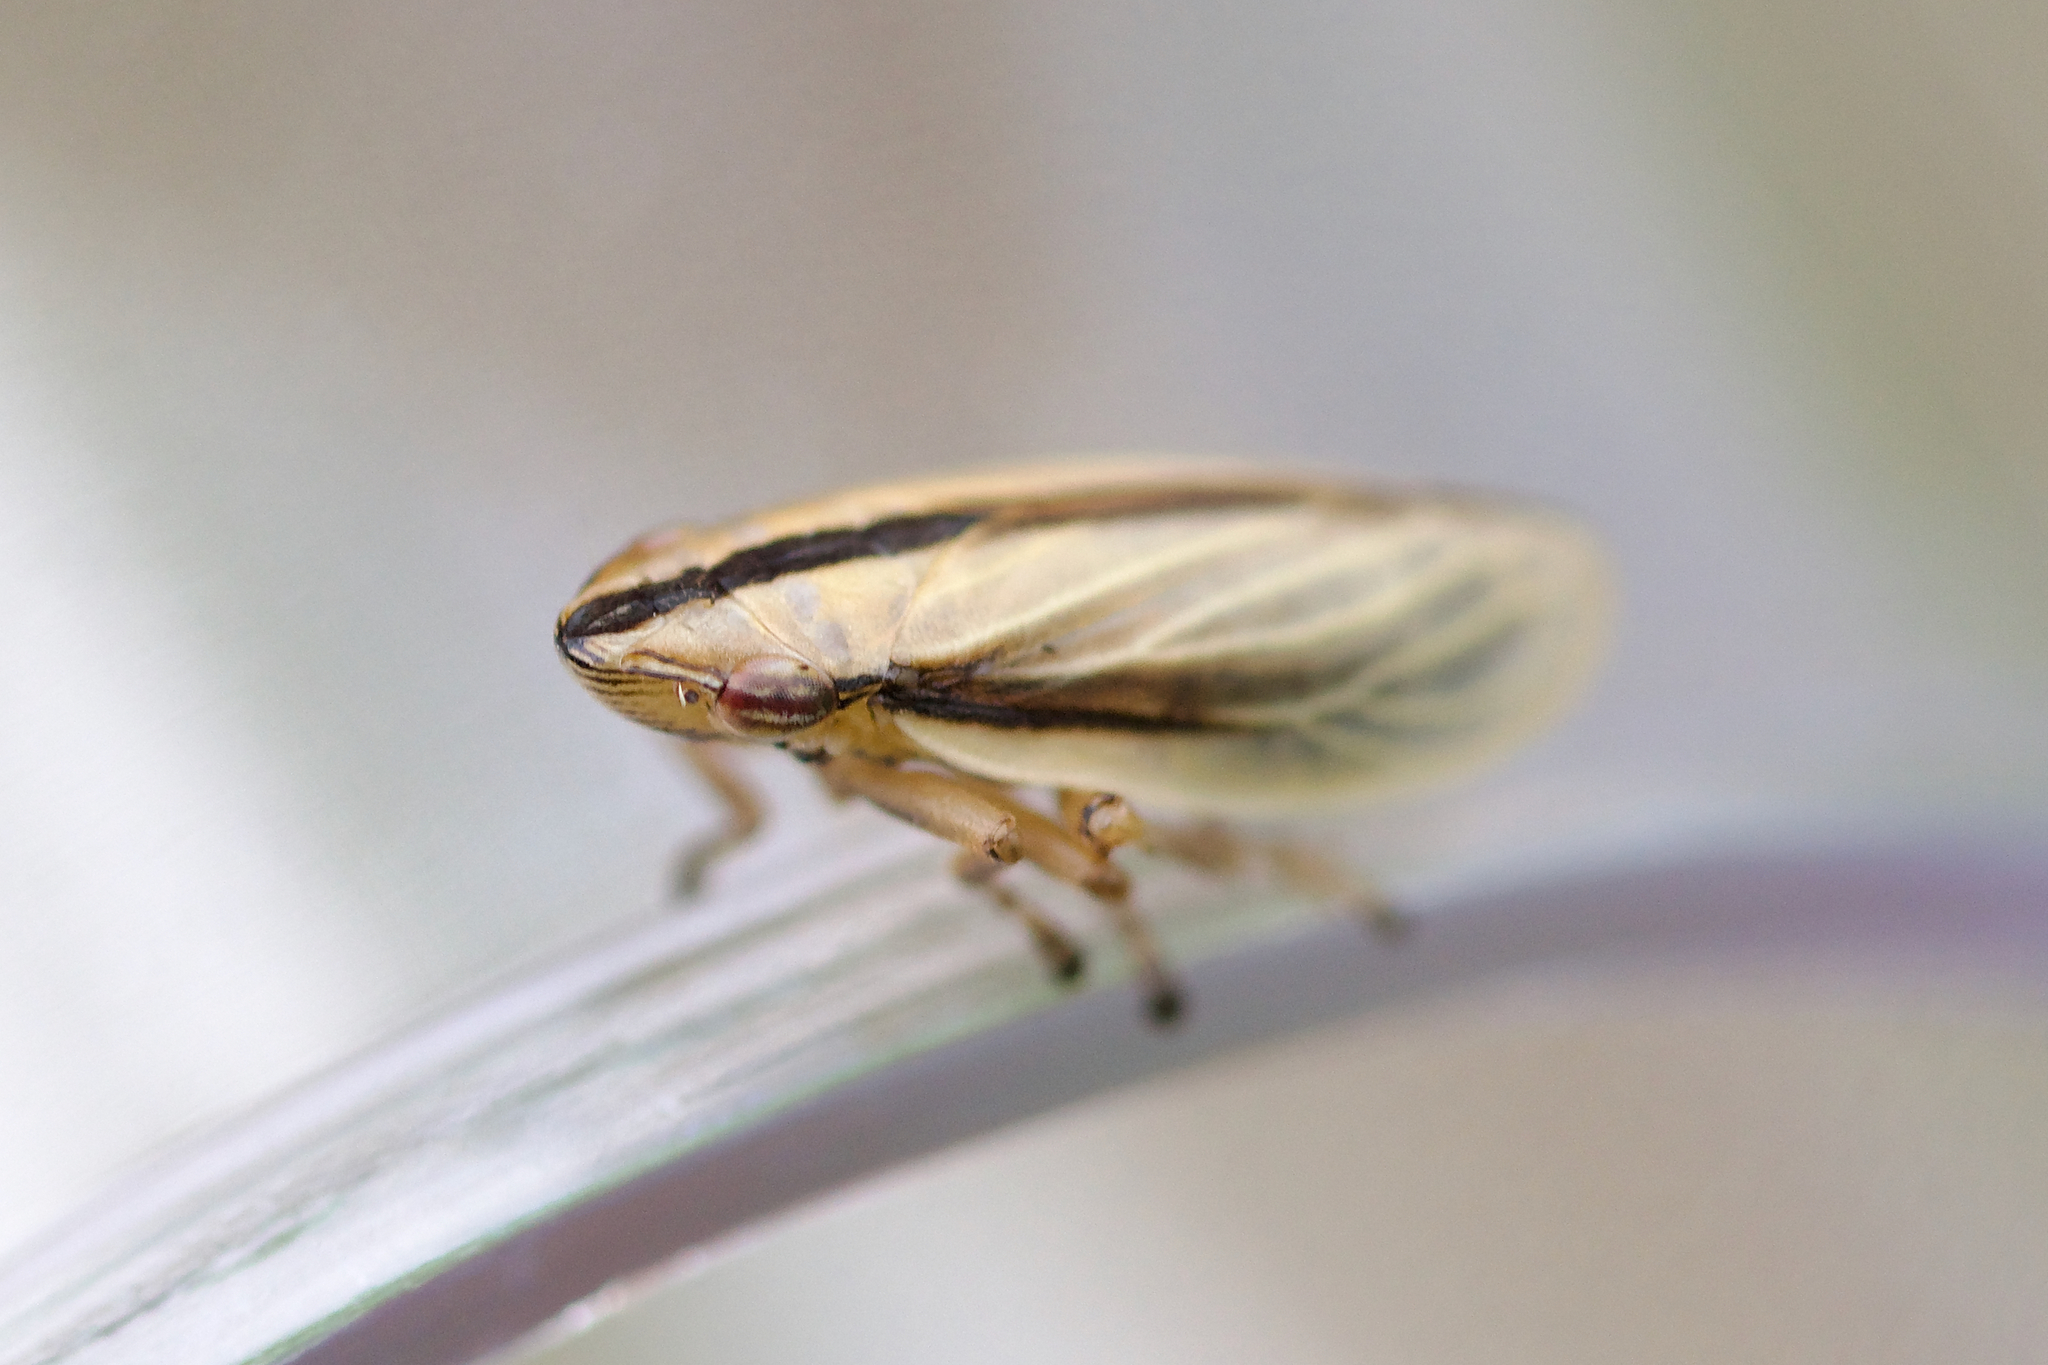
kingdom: Animalia
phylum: Arthropoda
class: Insecta
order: Hemiptera
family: Aphrophoridae
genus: Philaenus
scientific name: Philaenus parallelus
